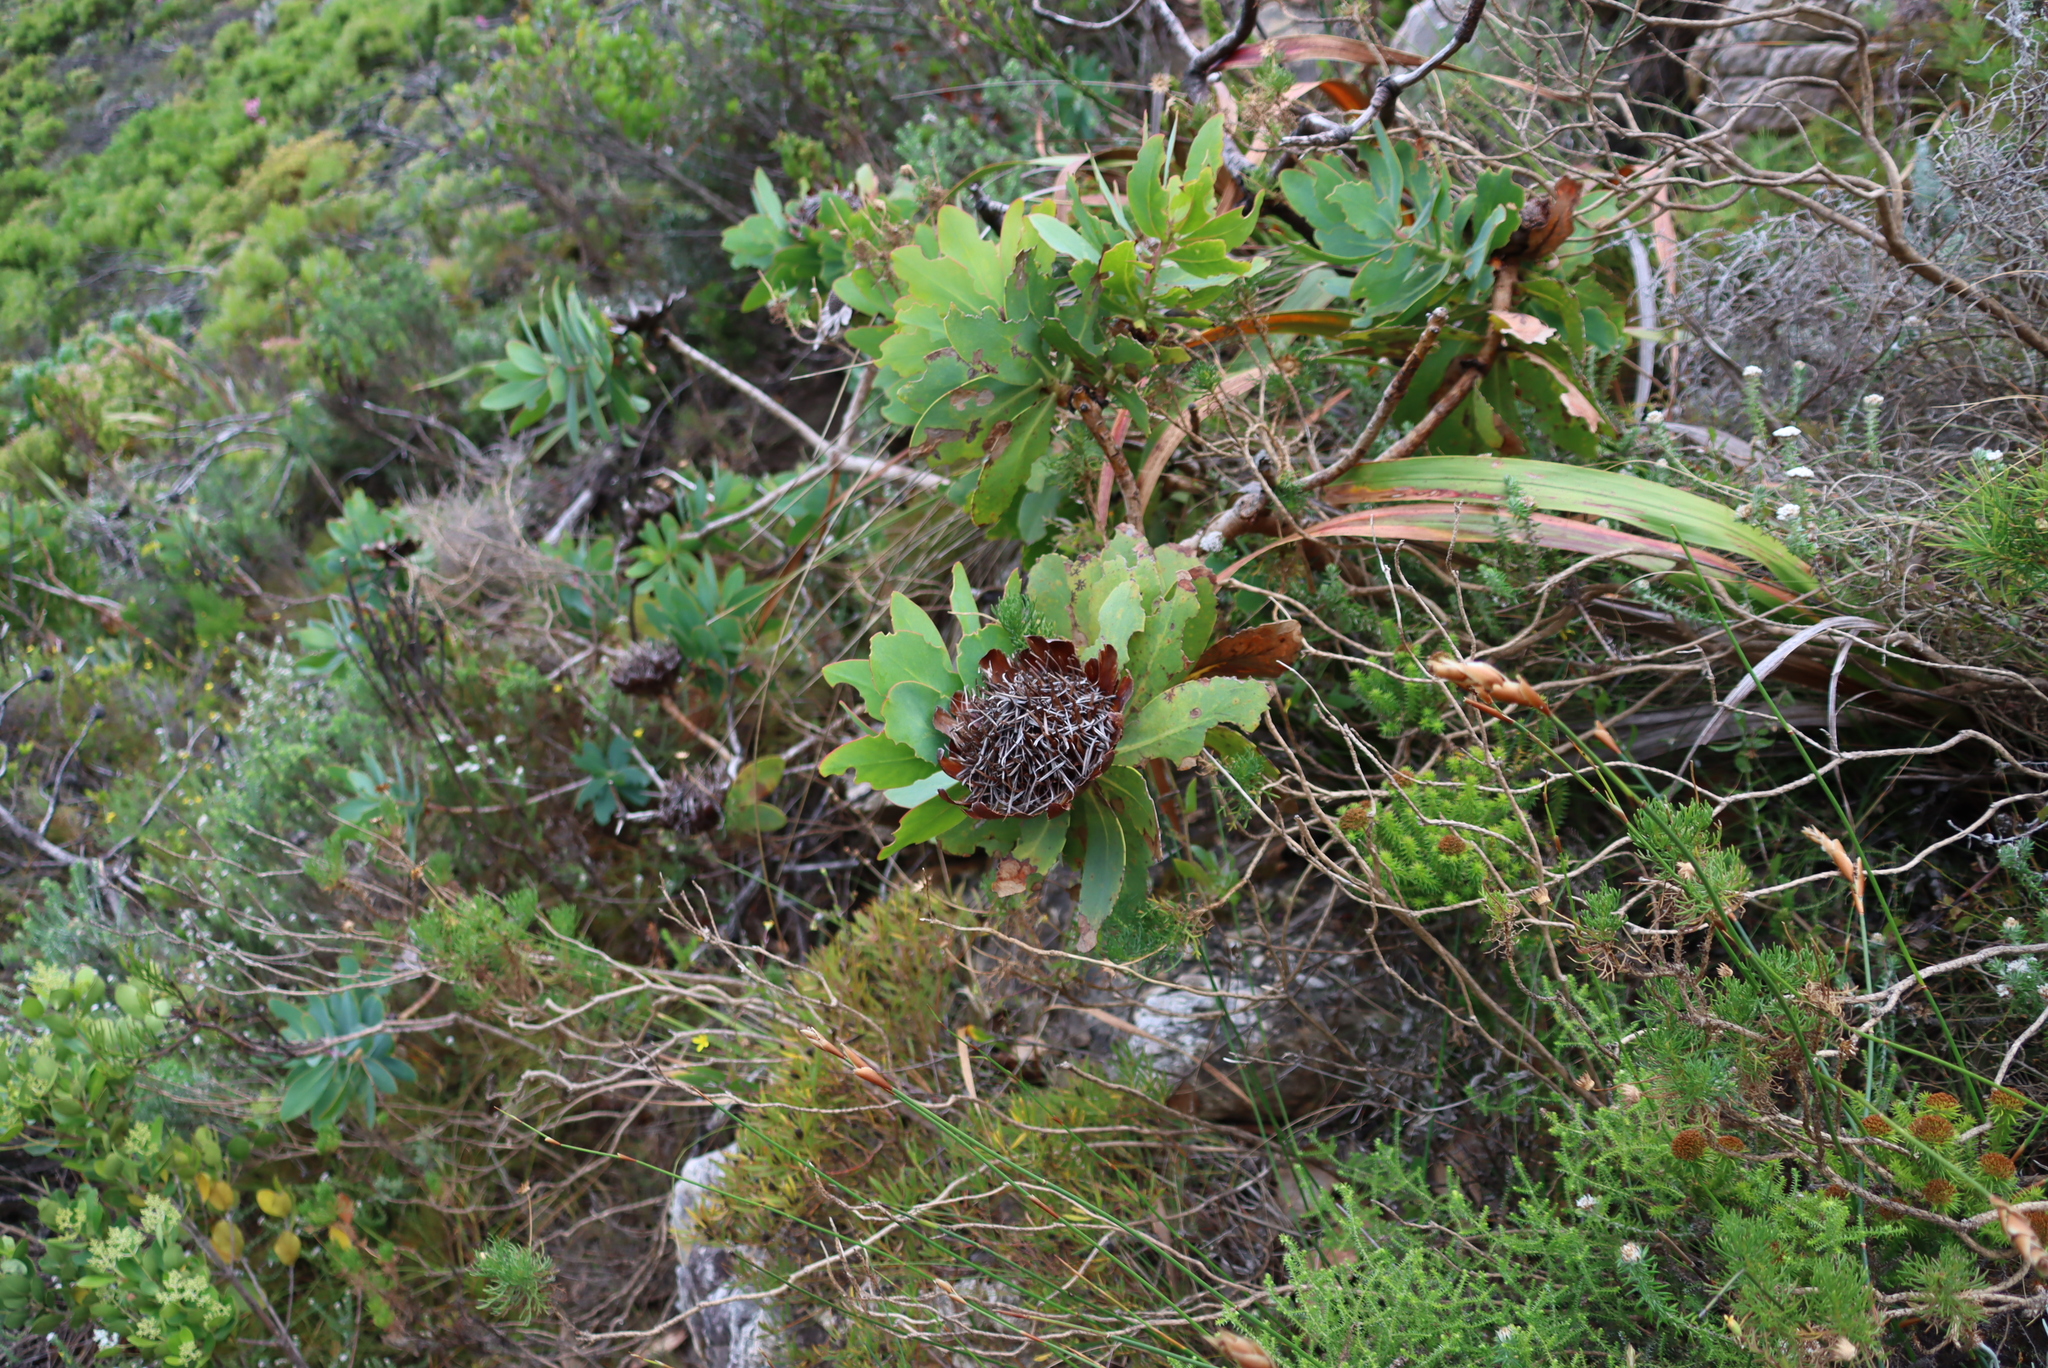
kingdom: Plantae
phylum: Tracheophyta
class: Magnoliopsida
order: Proteales
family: Proteaceae
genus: Protea
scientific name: Protea nitida
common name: Tree protea
